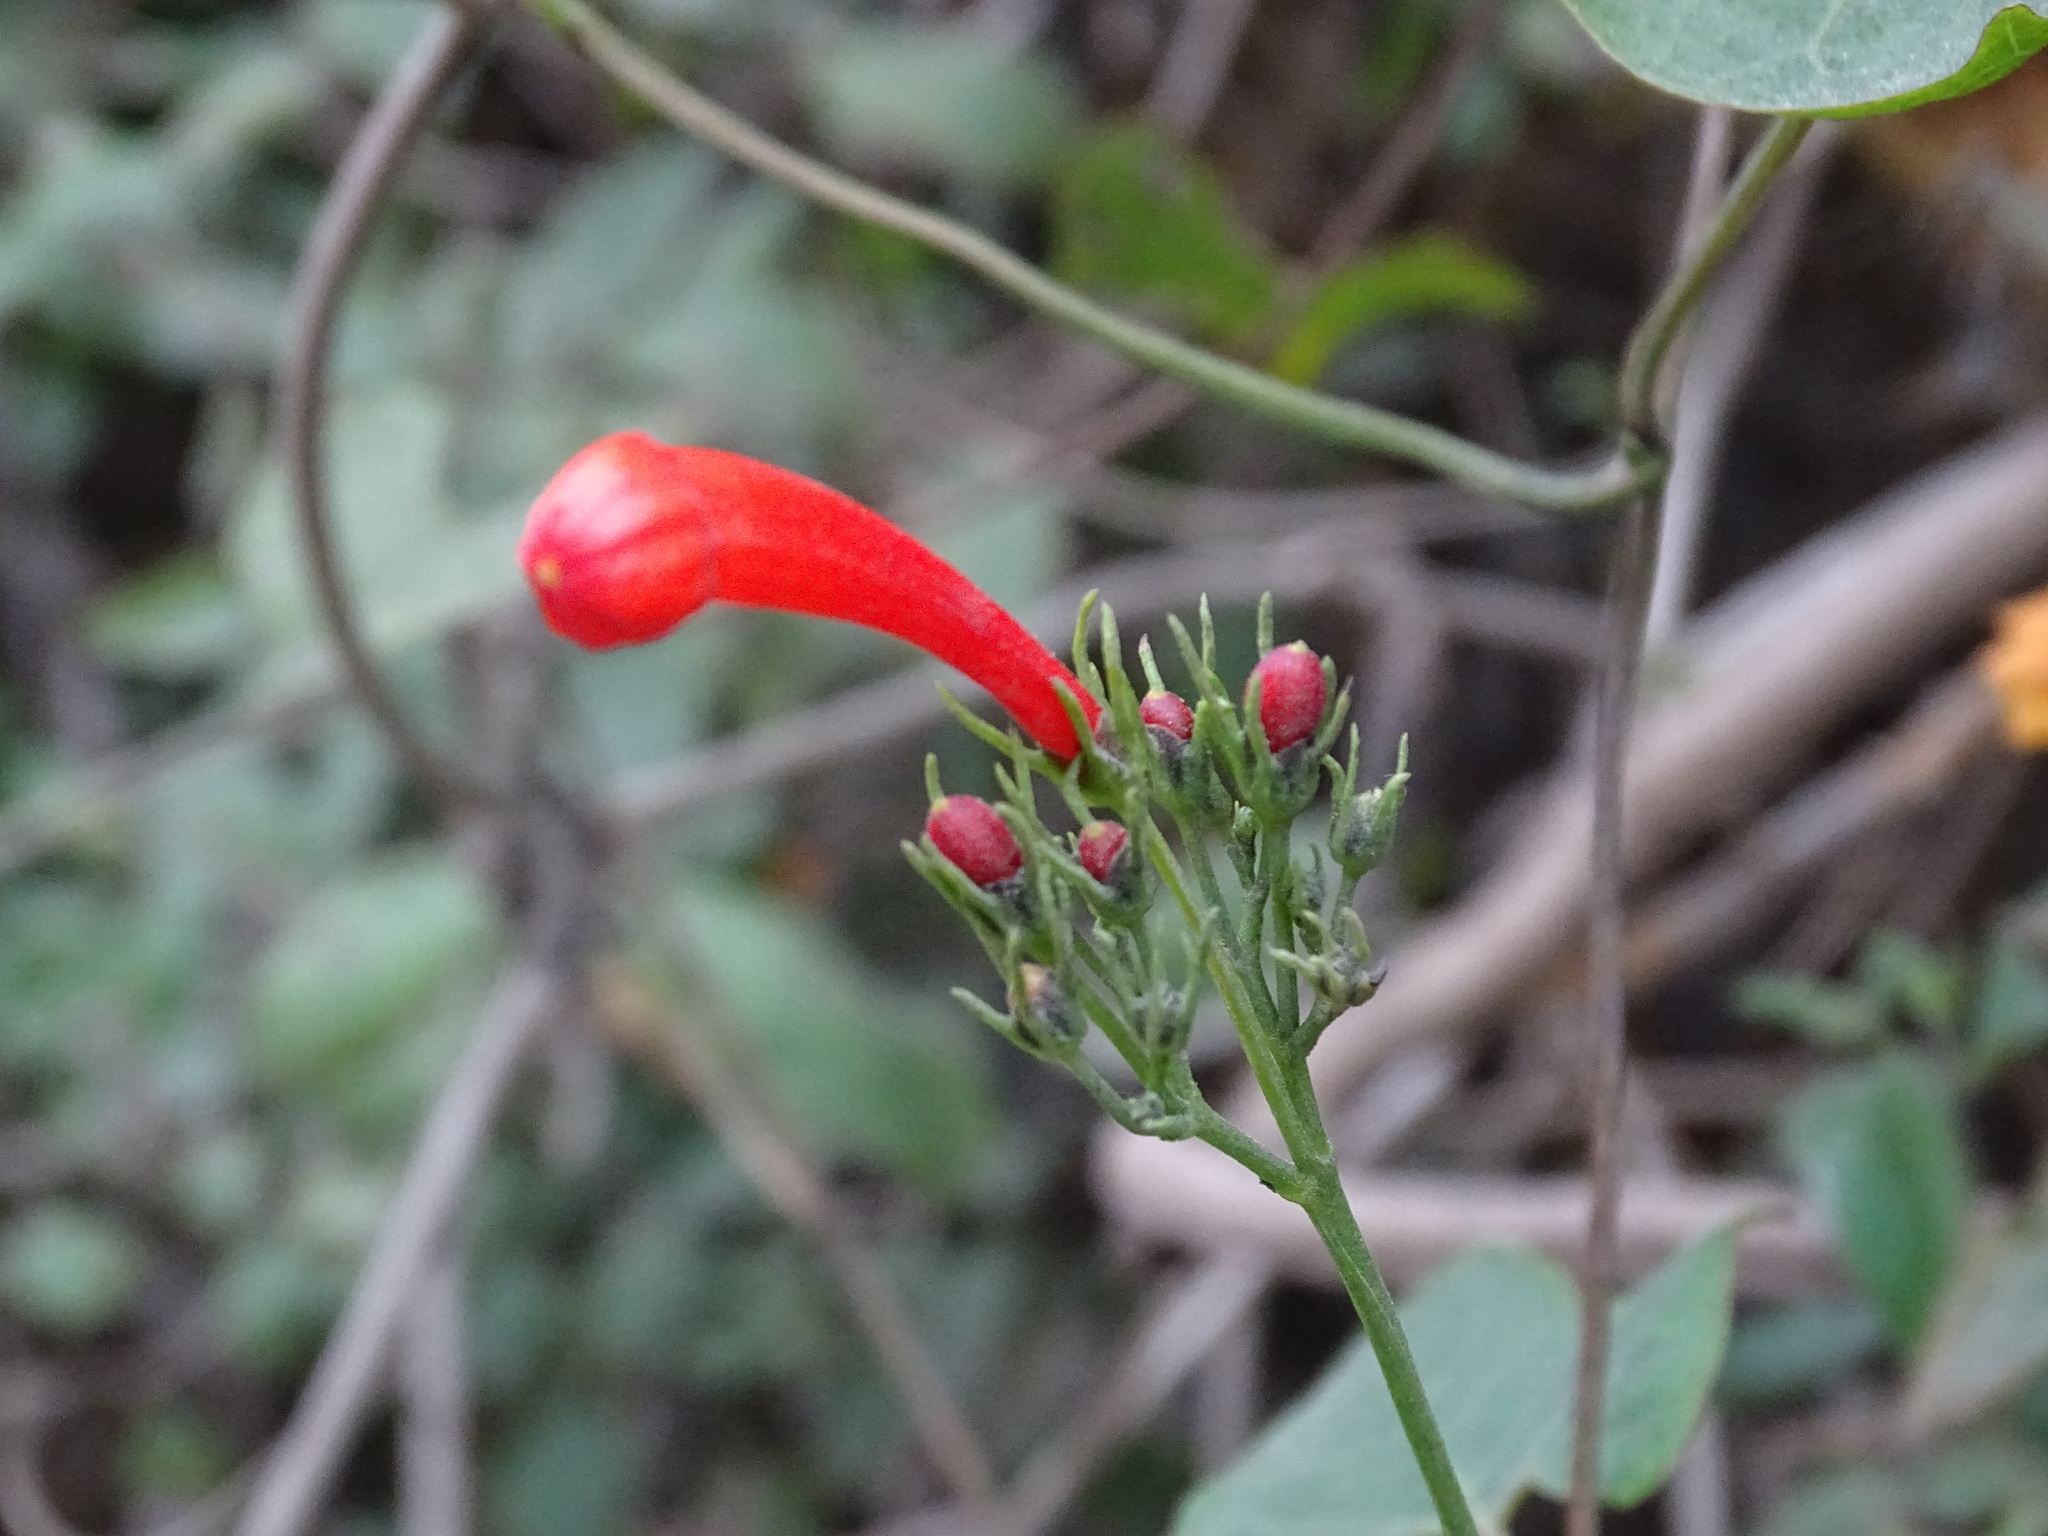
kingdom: Plantae
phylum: Tracheophyta
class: Magnoliopsida
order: Solanales
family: Convolvulaceae
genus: Ipomoea
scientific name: Ipomoea hastigera
